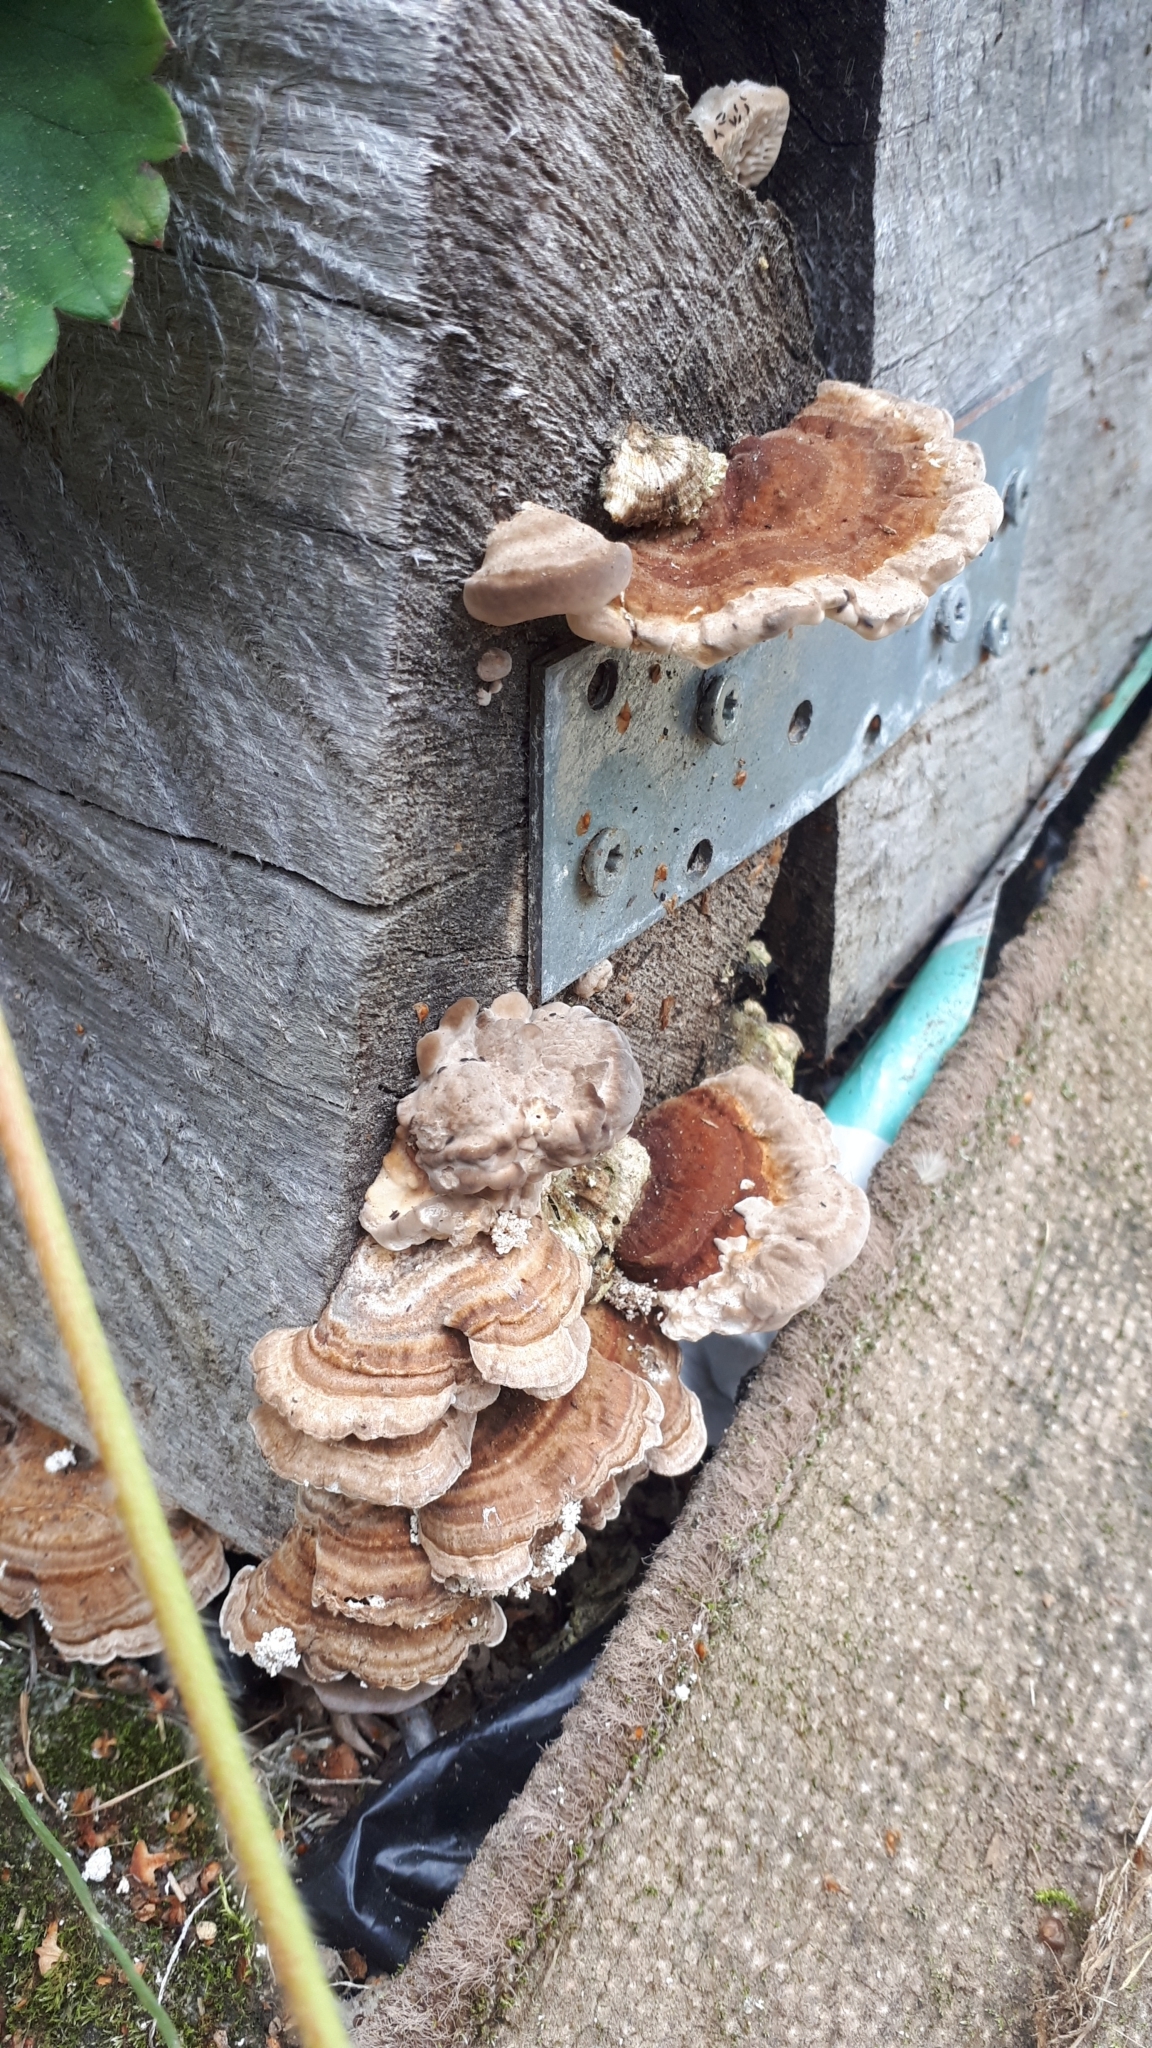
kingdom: Fungi
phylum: Basidiomycota
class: Agaricomycetes
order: Polyporales
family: Polyporaceae
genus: Trametes
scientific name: Trametes ochracea
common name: Ochre bracket
